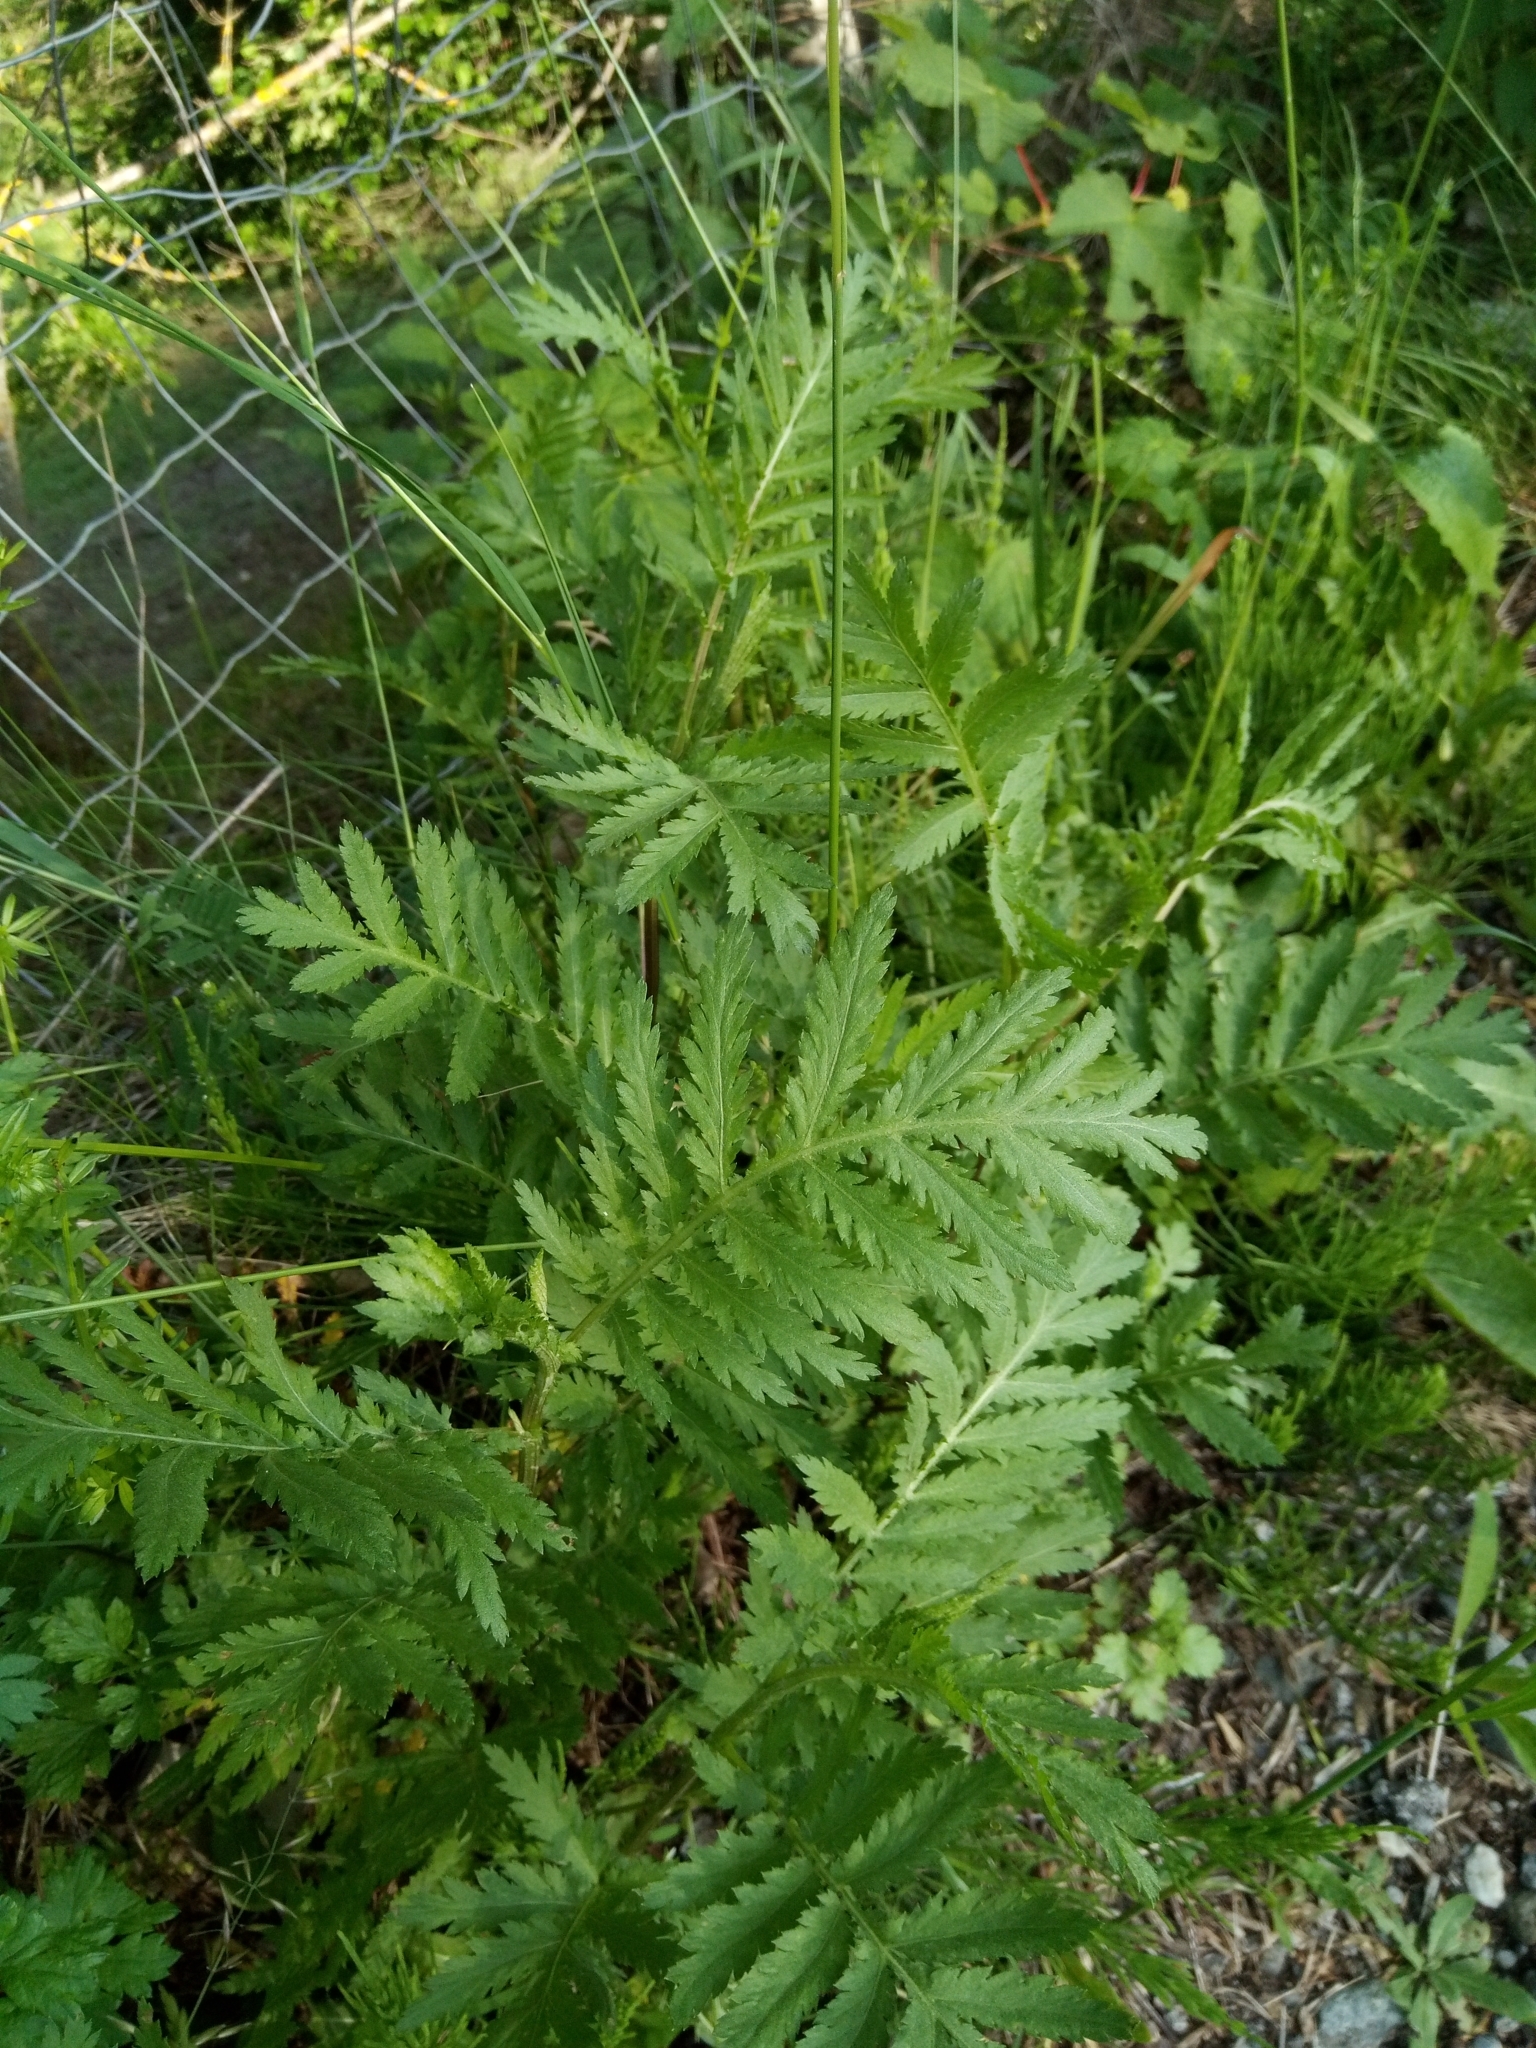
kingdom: Plantae
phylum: Tracheophyta
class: Magnoliopsida
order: Asterales
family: Asteraceae
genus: Tanacetum
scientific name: Tanacetum vulgare
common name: Common tansy
